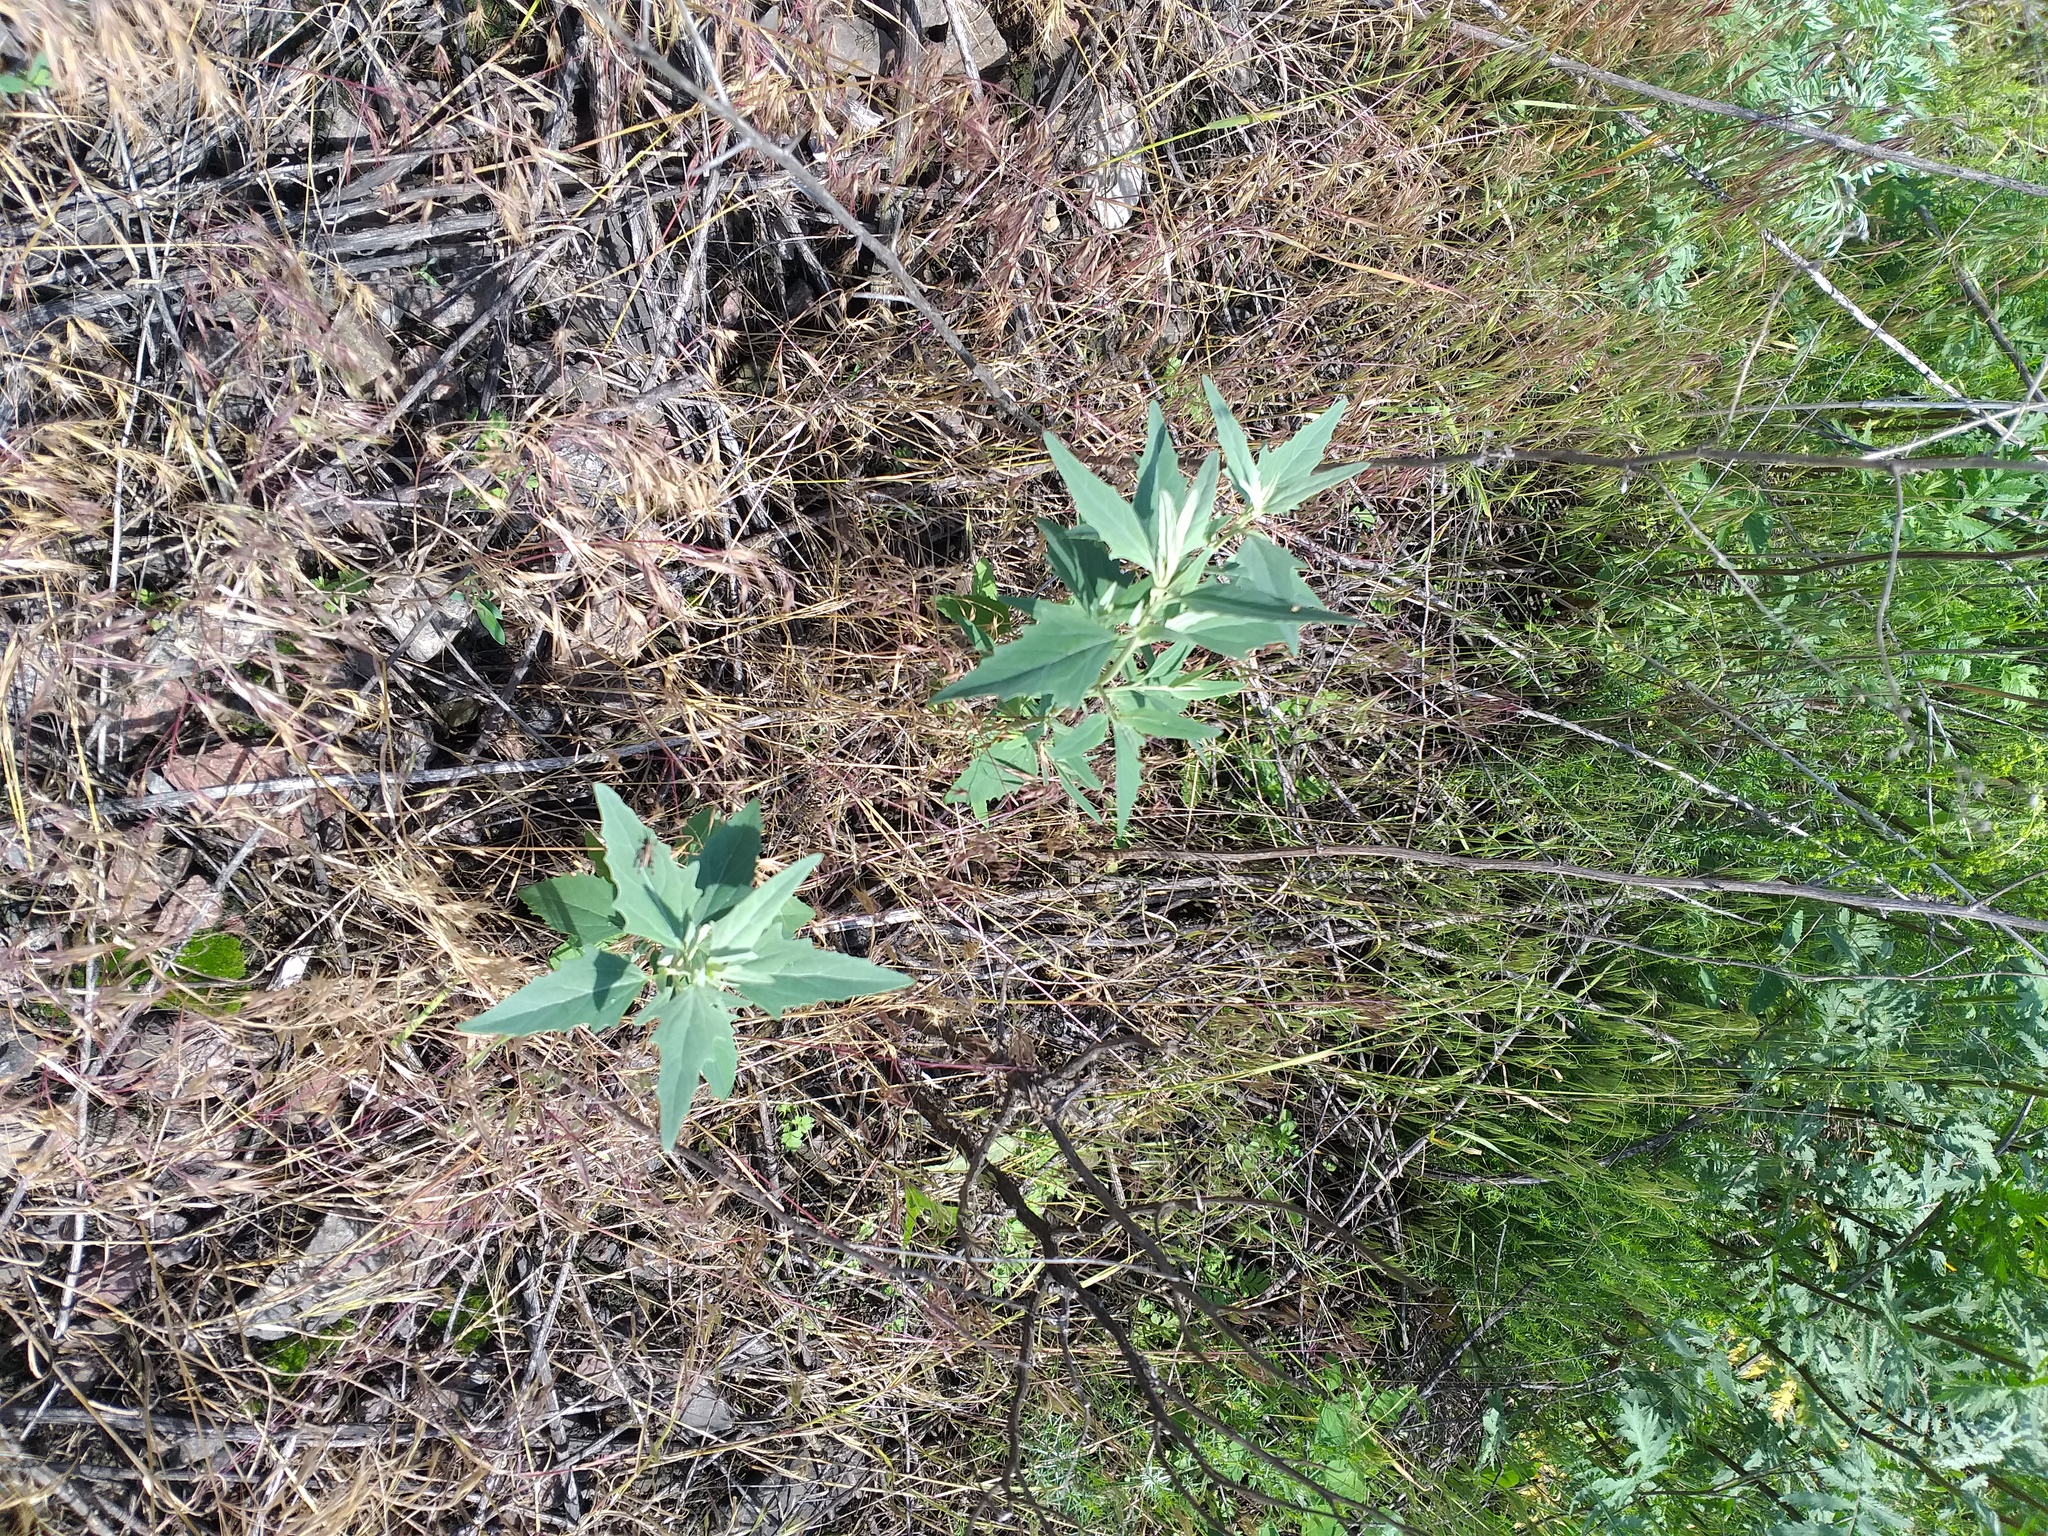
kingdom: Plantae
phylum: Tracheophyta
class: Magnoliopsida
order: Caryophyllales
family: Amaranthaceae
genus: Atriplex
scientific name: Atriplex oblongifolia
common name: Oblongleaf orache
